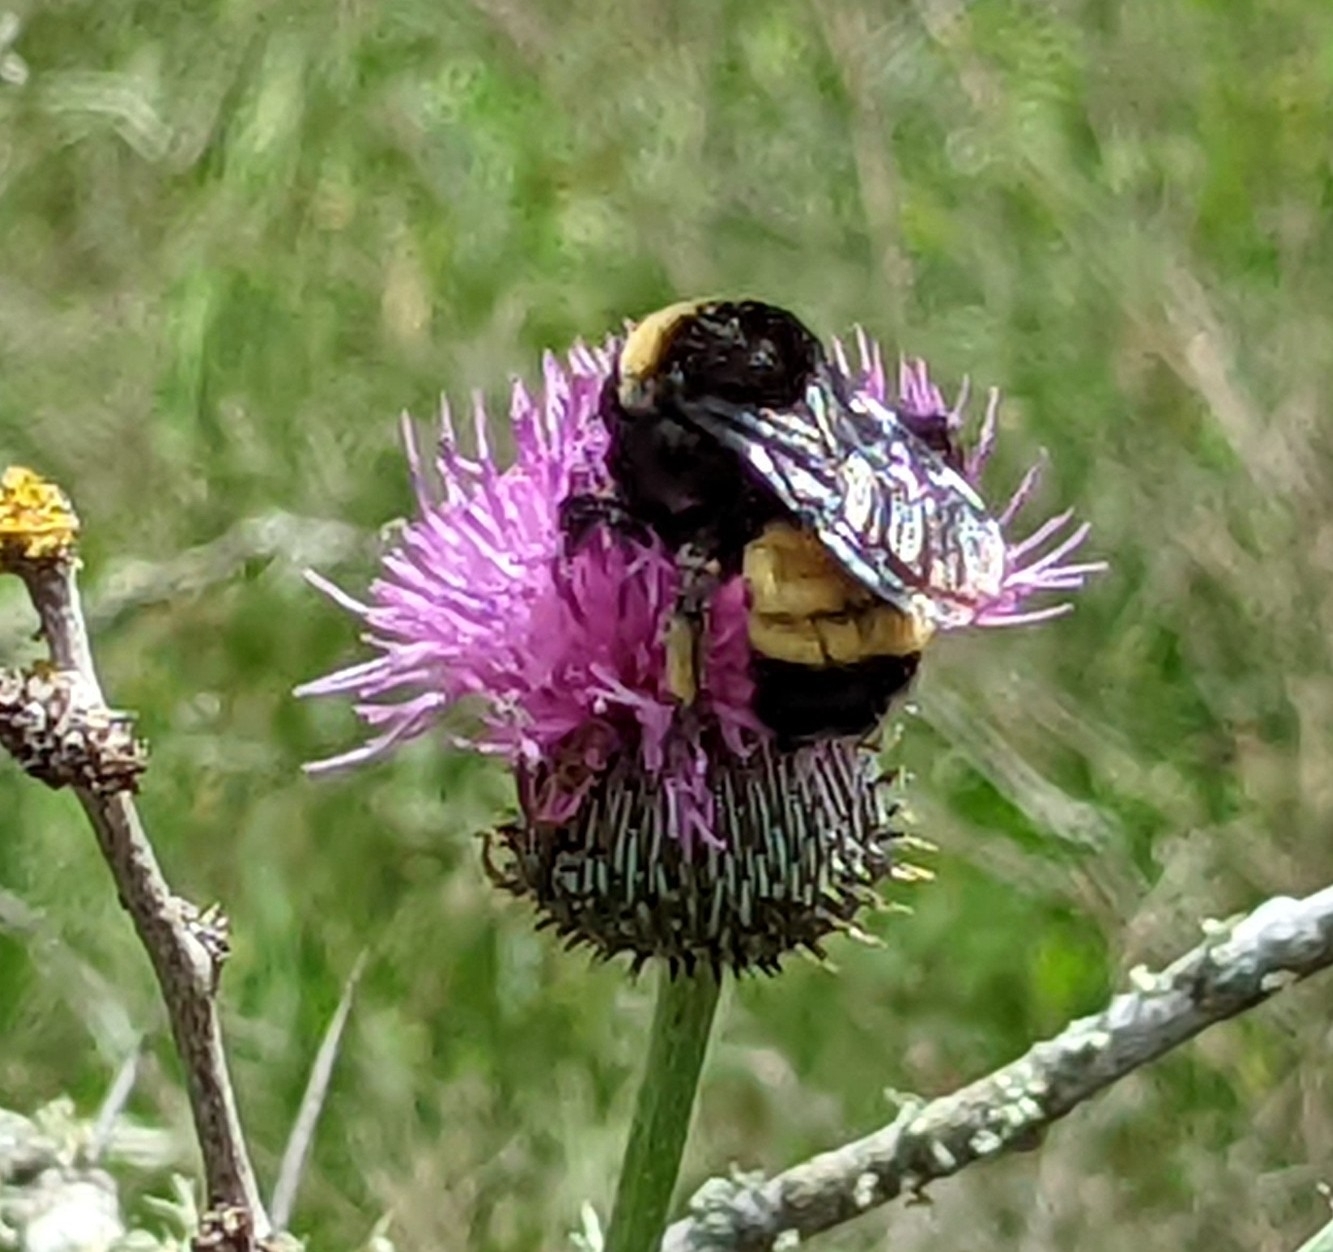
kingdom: Animalia
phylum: Arthropoda
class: Insecta
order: Hymenoptera
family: Apidae
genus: Bombus
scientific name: Bombus pensylvanicus
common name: Bumble bee
